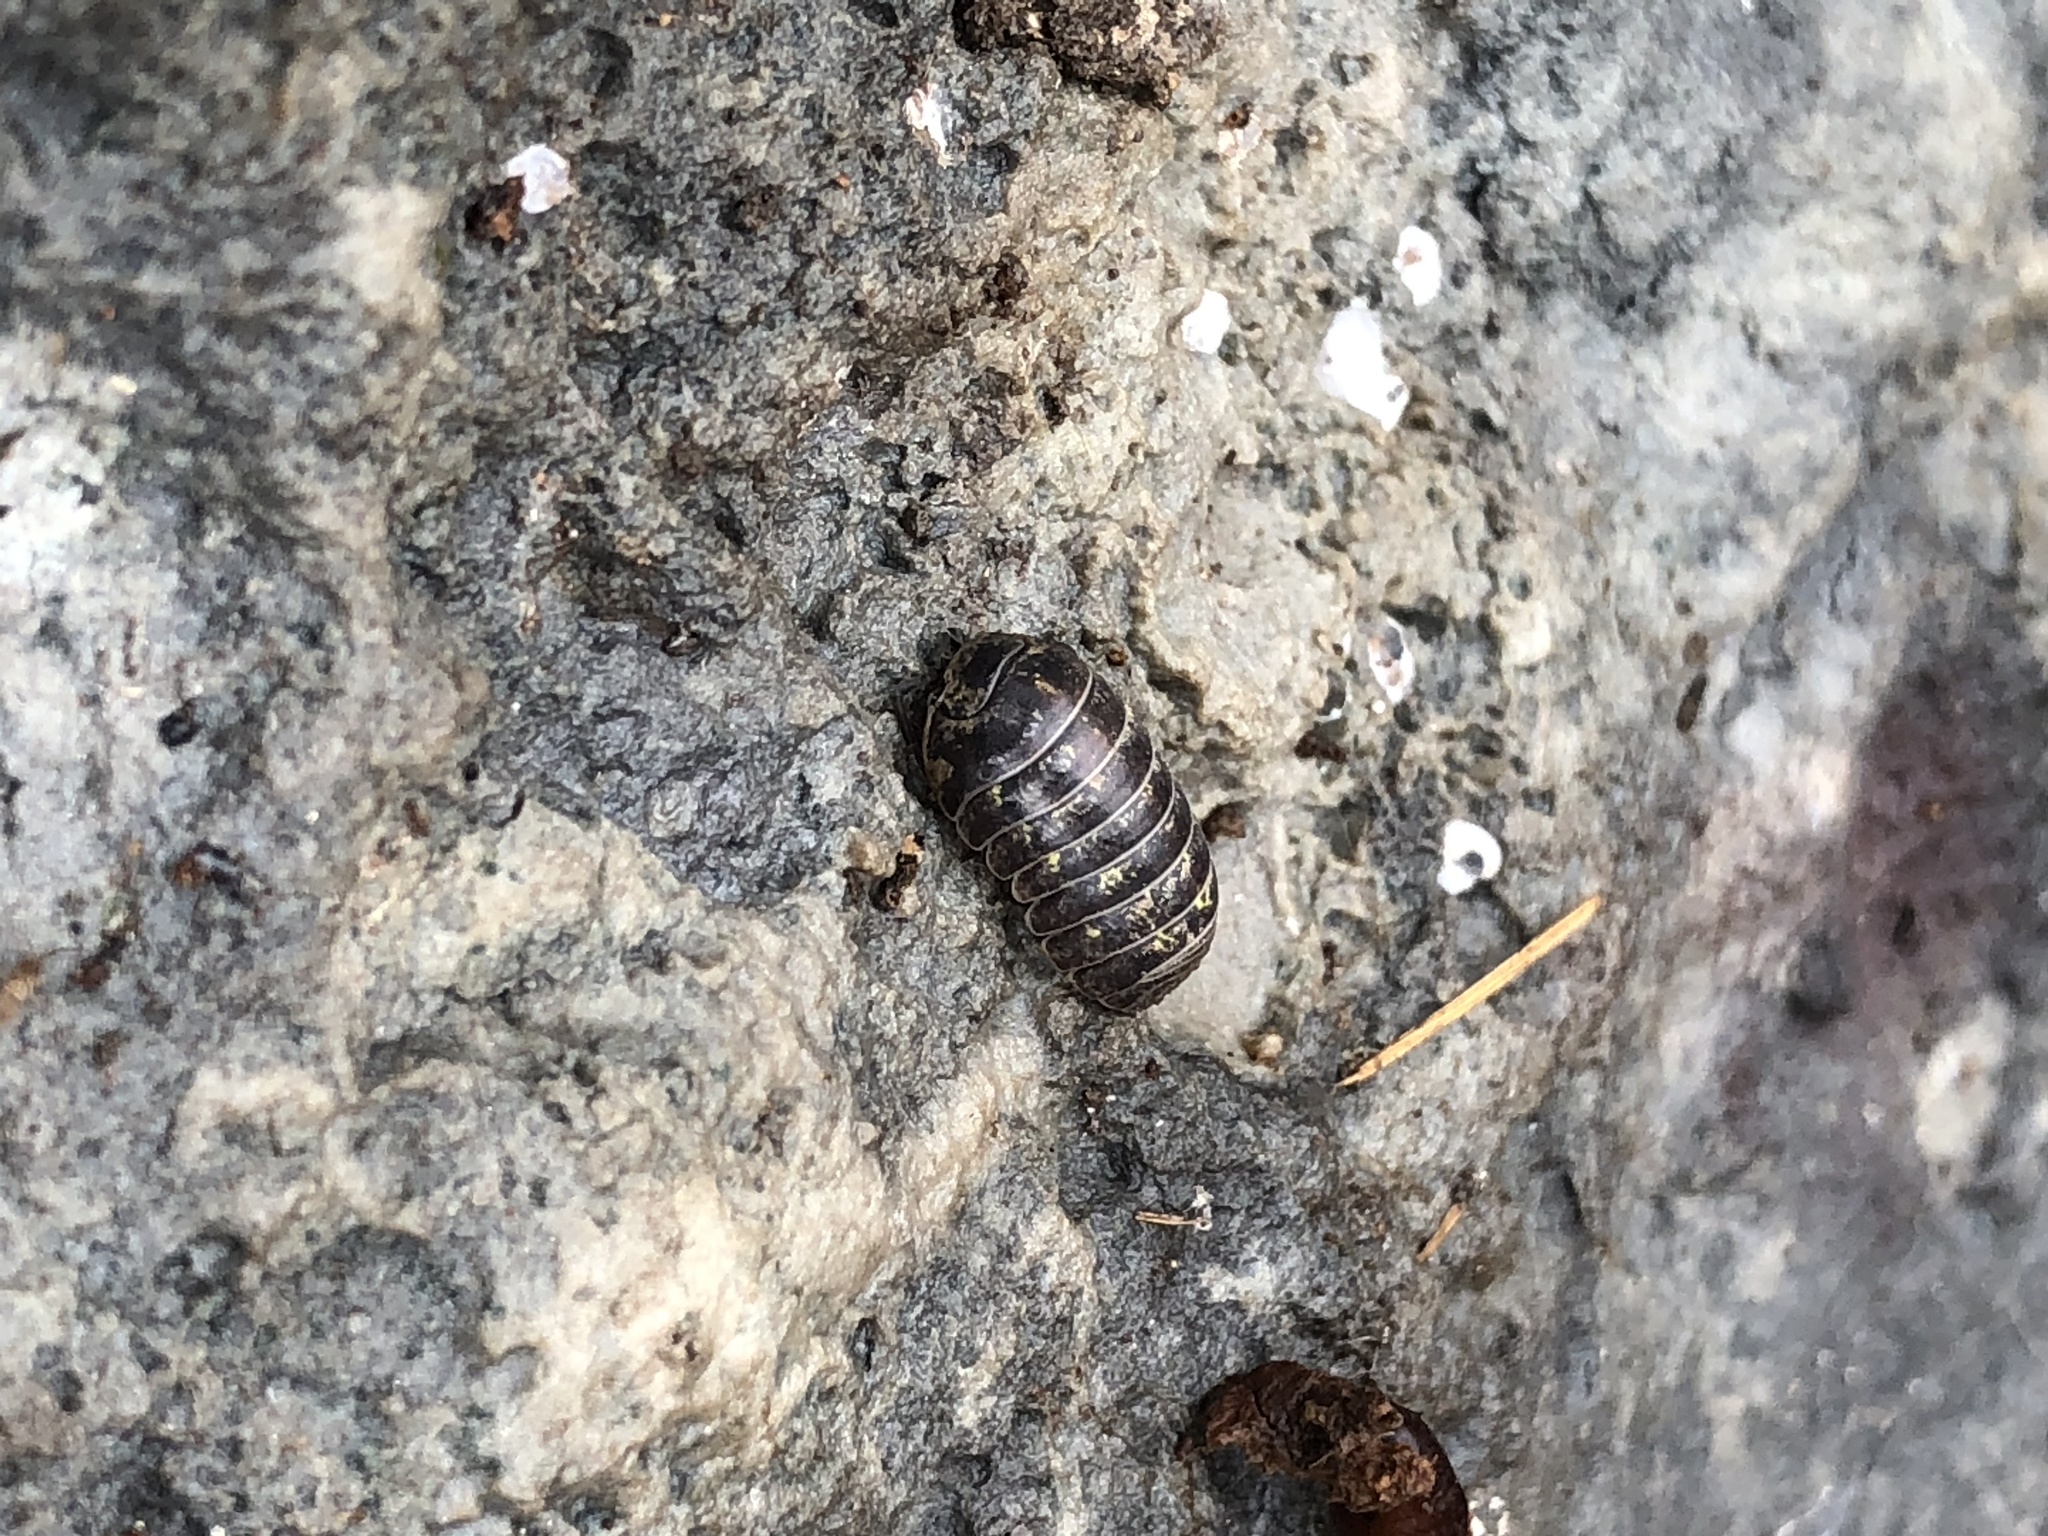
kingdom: Animalia
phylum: Arthropoda
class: Malacostraca
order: Isopoda
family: Armadillidiidae
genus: Armadillidium
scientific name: Armadillidium vulgare
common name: Common pill woodlouse
